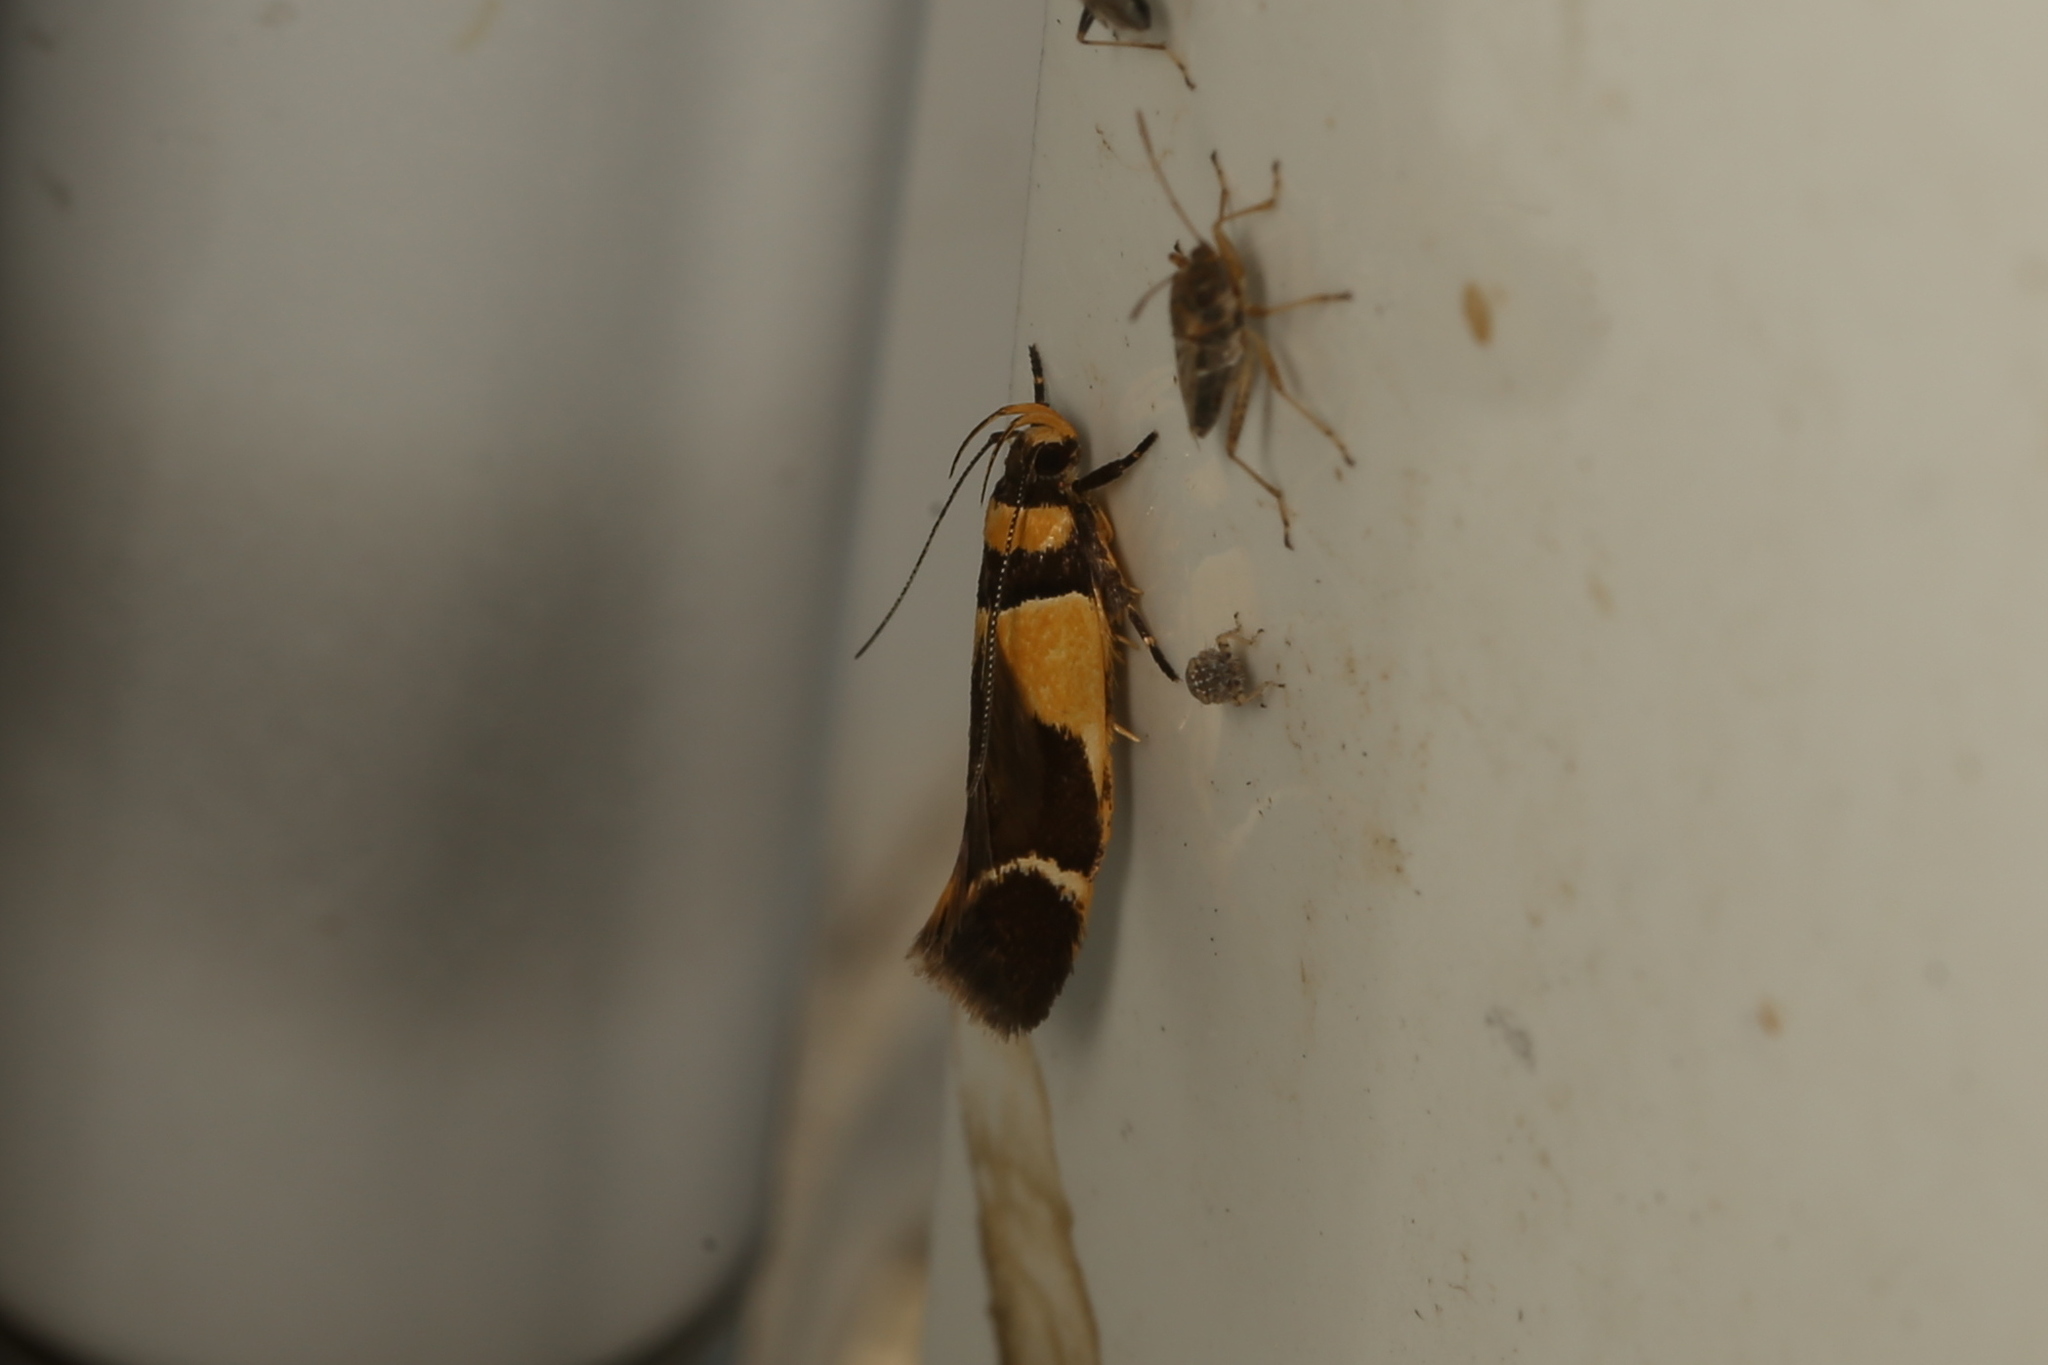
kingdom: Animalia
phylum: Arthropoda
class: Insecta
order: Lepidoptera
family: Cosmopterigidae
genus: Macrobathra
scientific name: Macrobathra chrysotoxa
